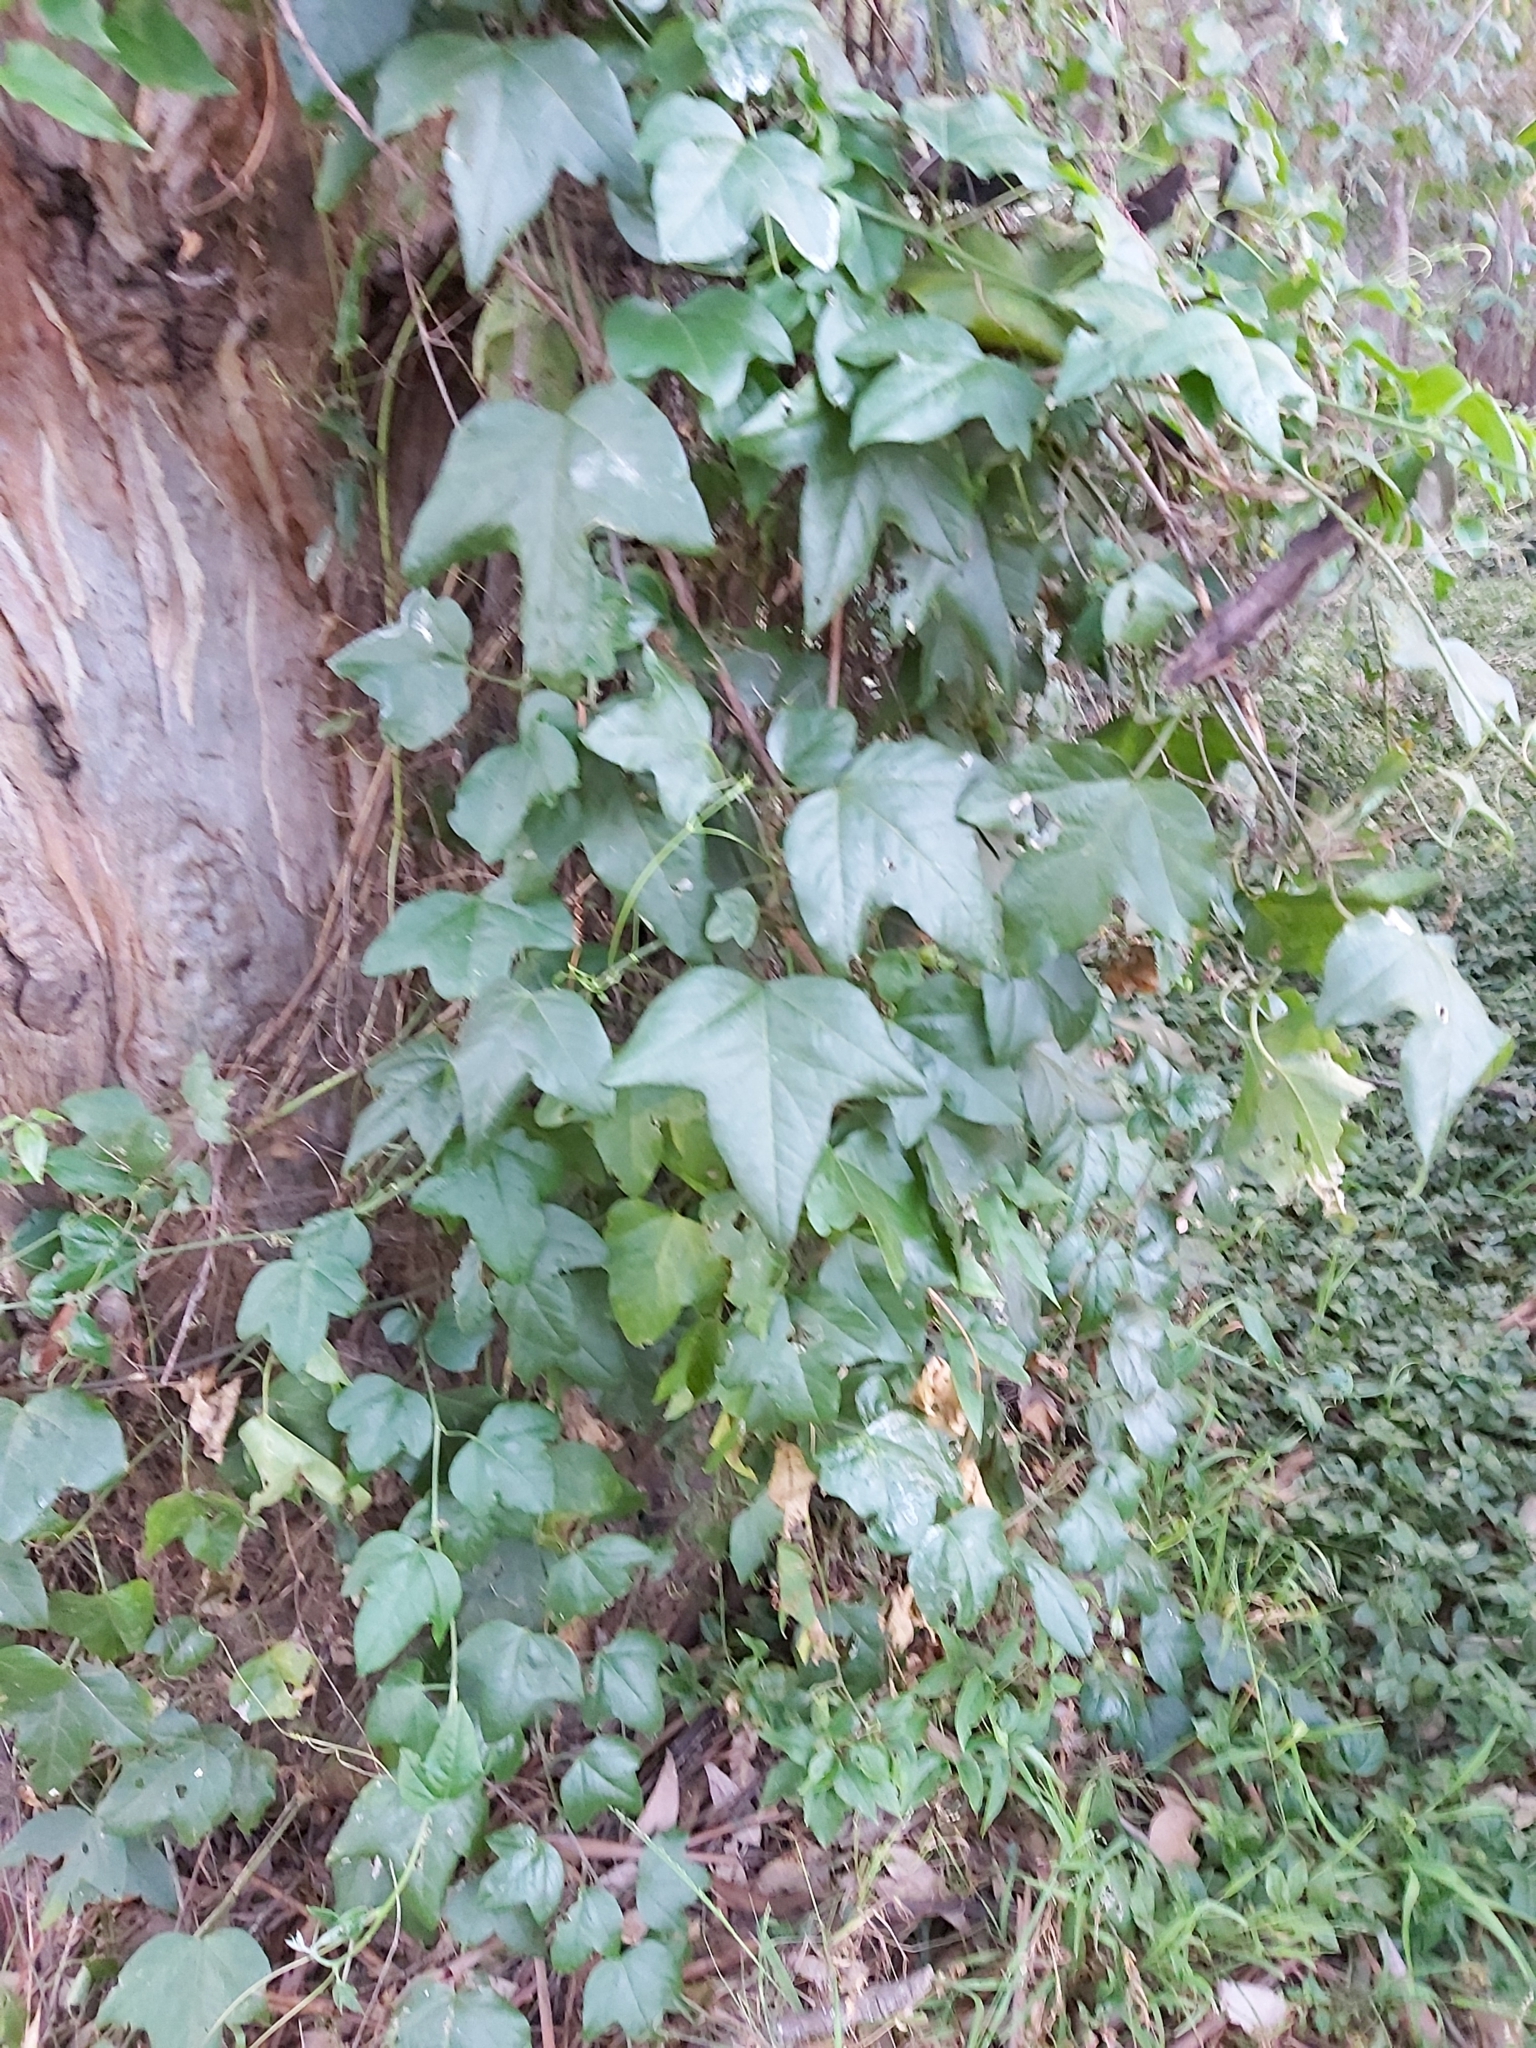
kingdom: Plantae
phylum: Tracheophyta
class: Magnoliopsida
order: Malpighiales
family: Passifloraceae
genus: Passiflora
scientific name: Passiflora suberosa
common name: Wild passionfruit
